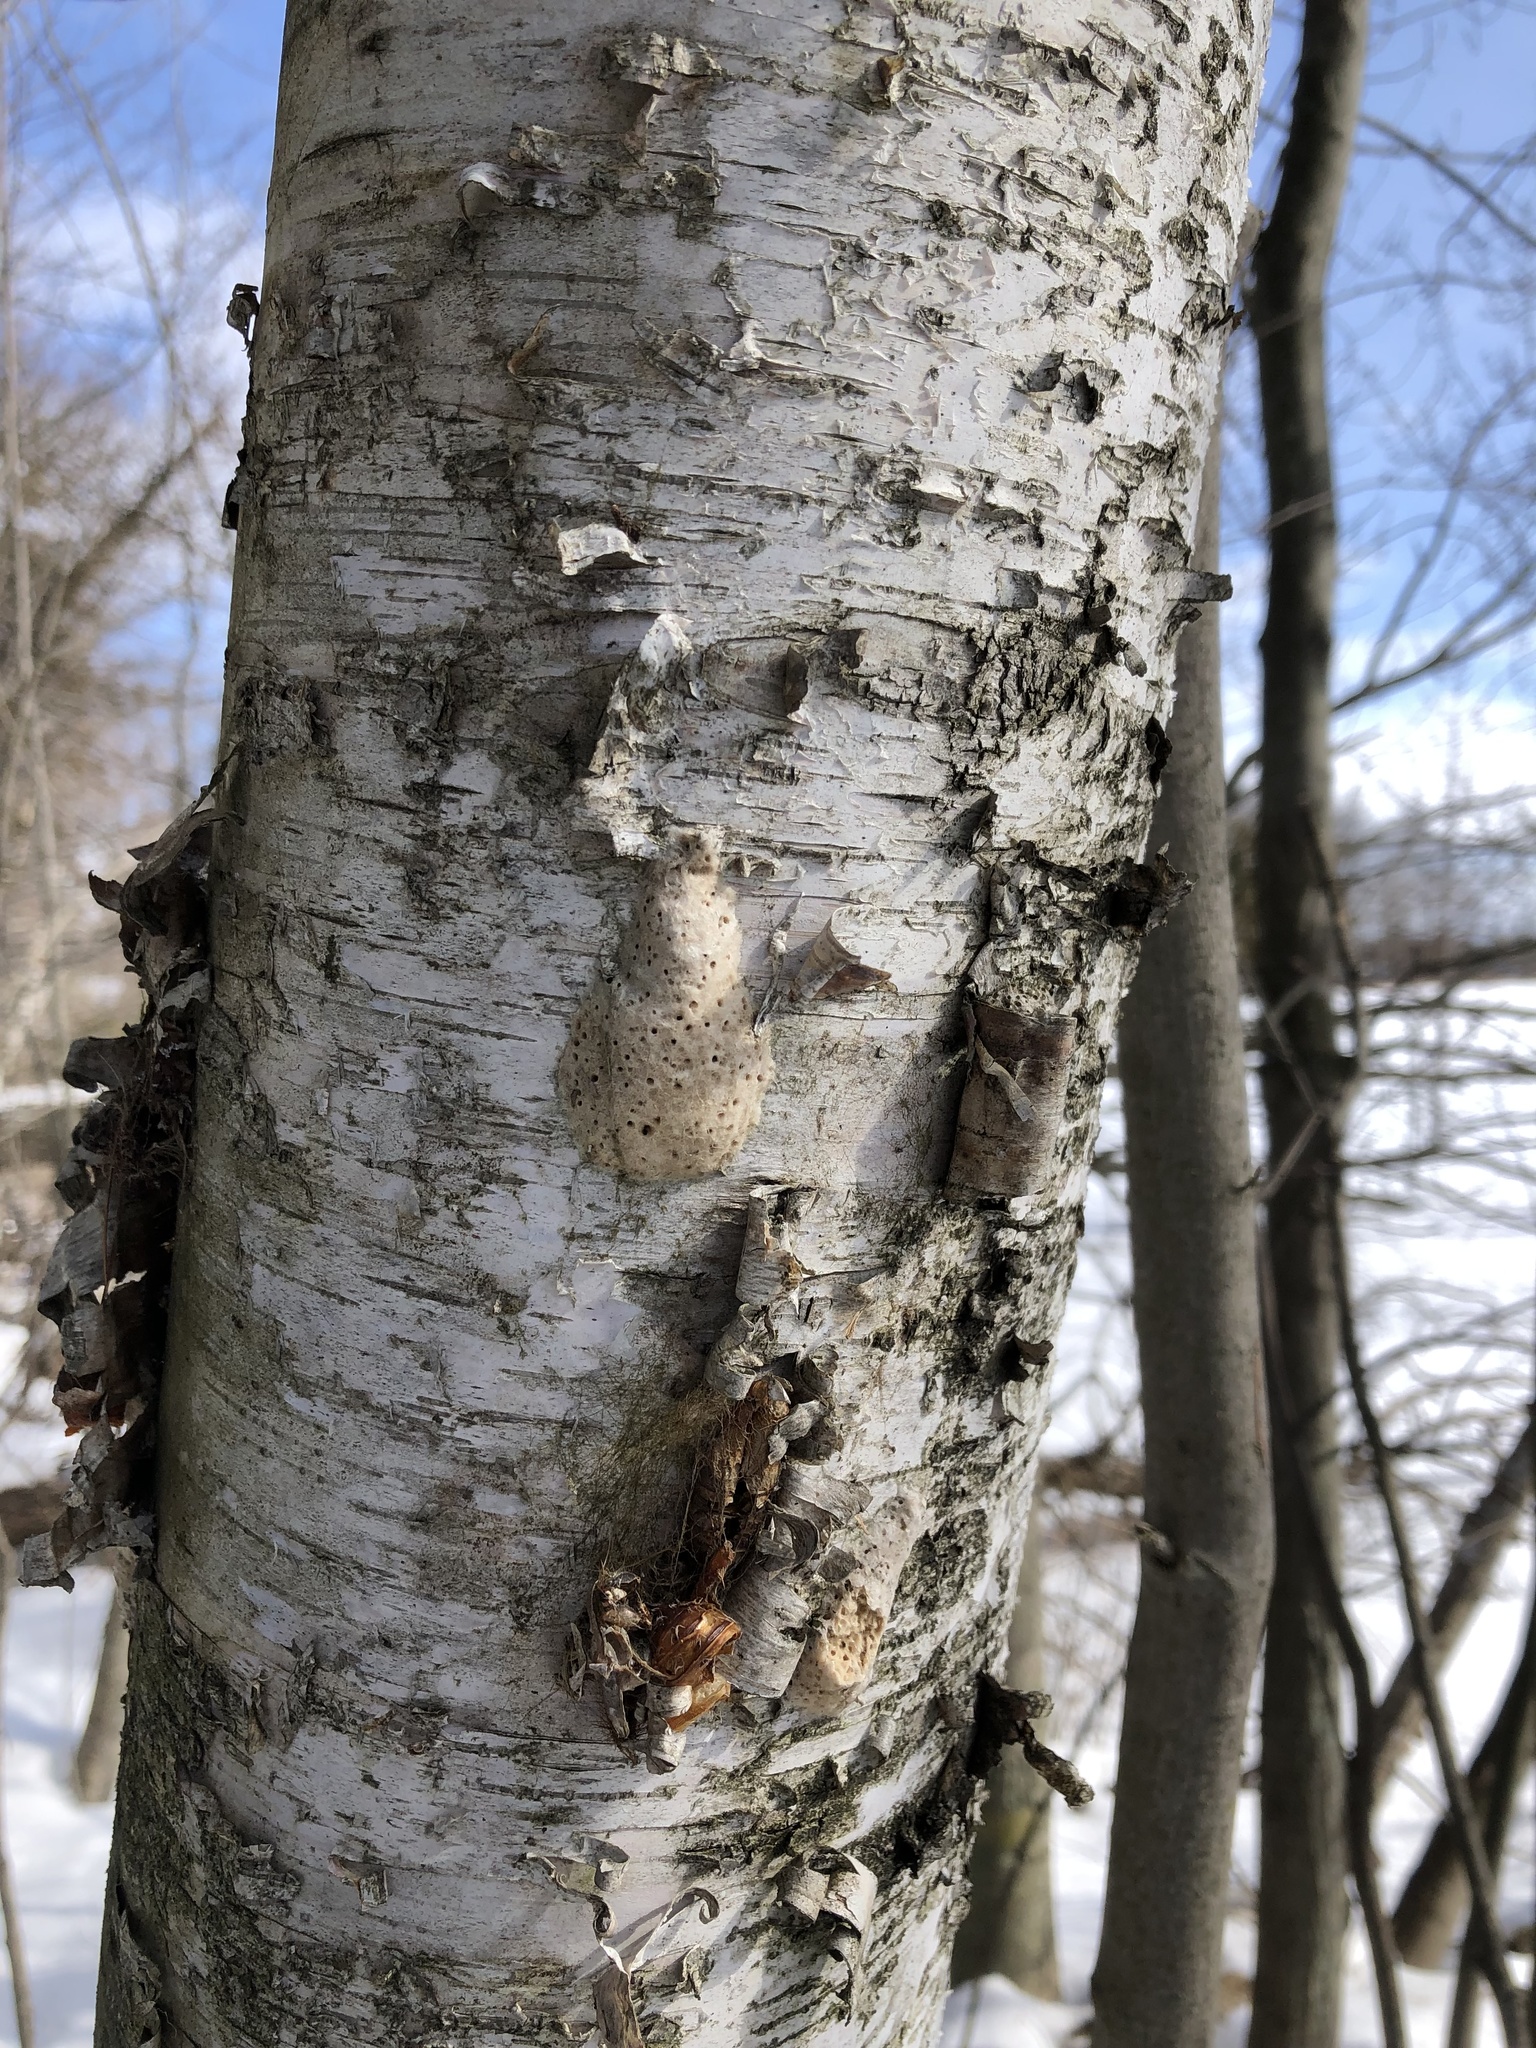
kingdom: Animalia
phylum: Arthropoda
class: Insecta
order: Lepidoptera
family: Erebidae
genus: Lymantria
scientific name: Lymantria dispar
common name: Gypsy moth
